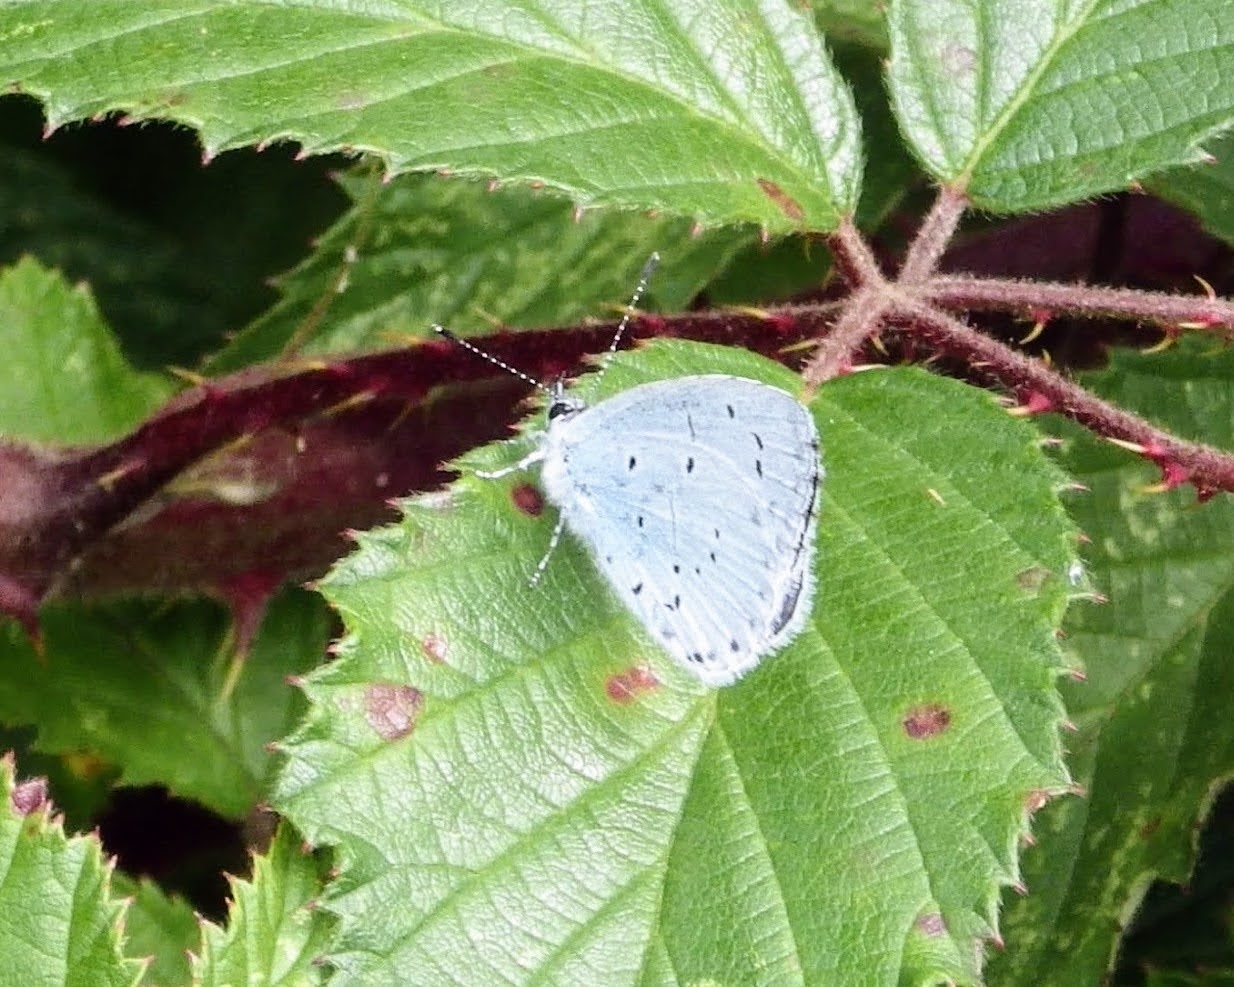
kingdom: Animalia
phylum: Arthropoda
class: Insecta
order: Lepidoptera
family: Lycaenidae
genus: Celastrina
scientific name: Celastrina argiolus
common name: Holly blue
